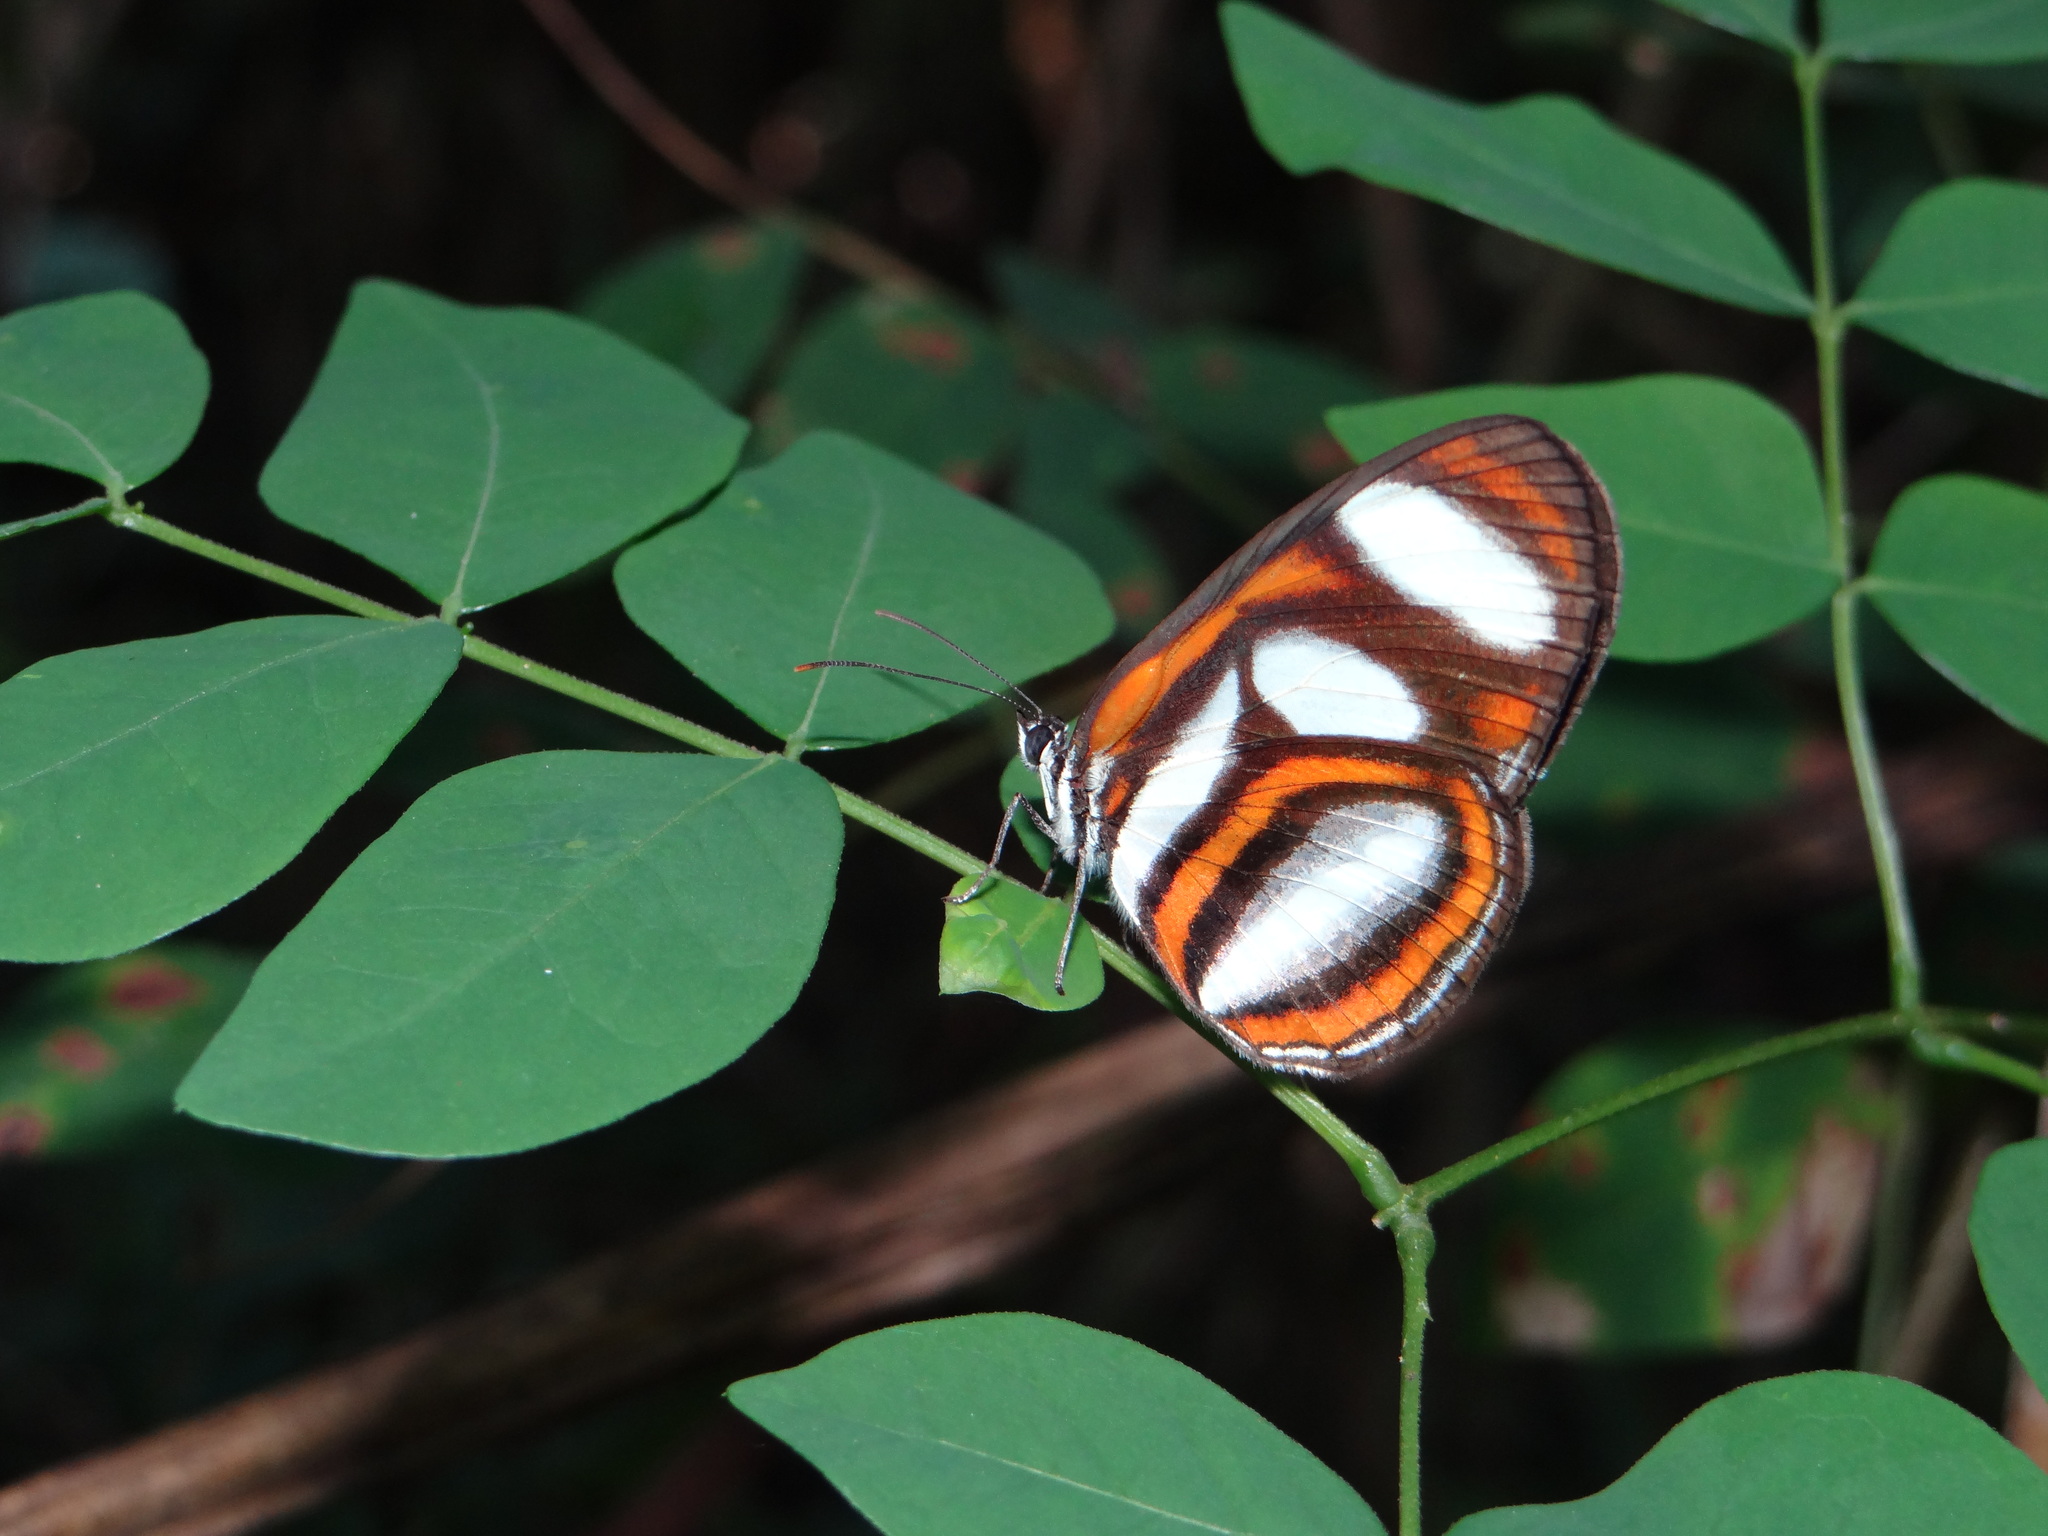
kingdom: Animalia
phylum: Arthropoda
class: Insecta
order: Lepidoptera
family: Nymphalidae
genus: Vila
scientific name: Vila emilia
